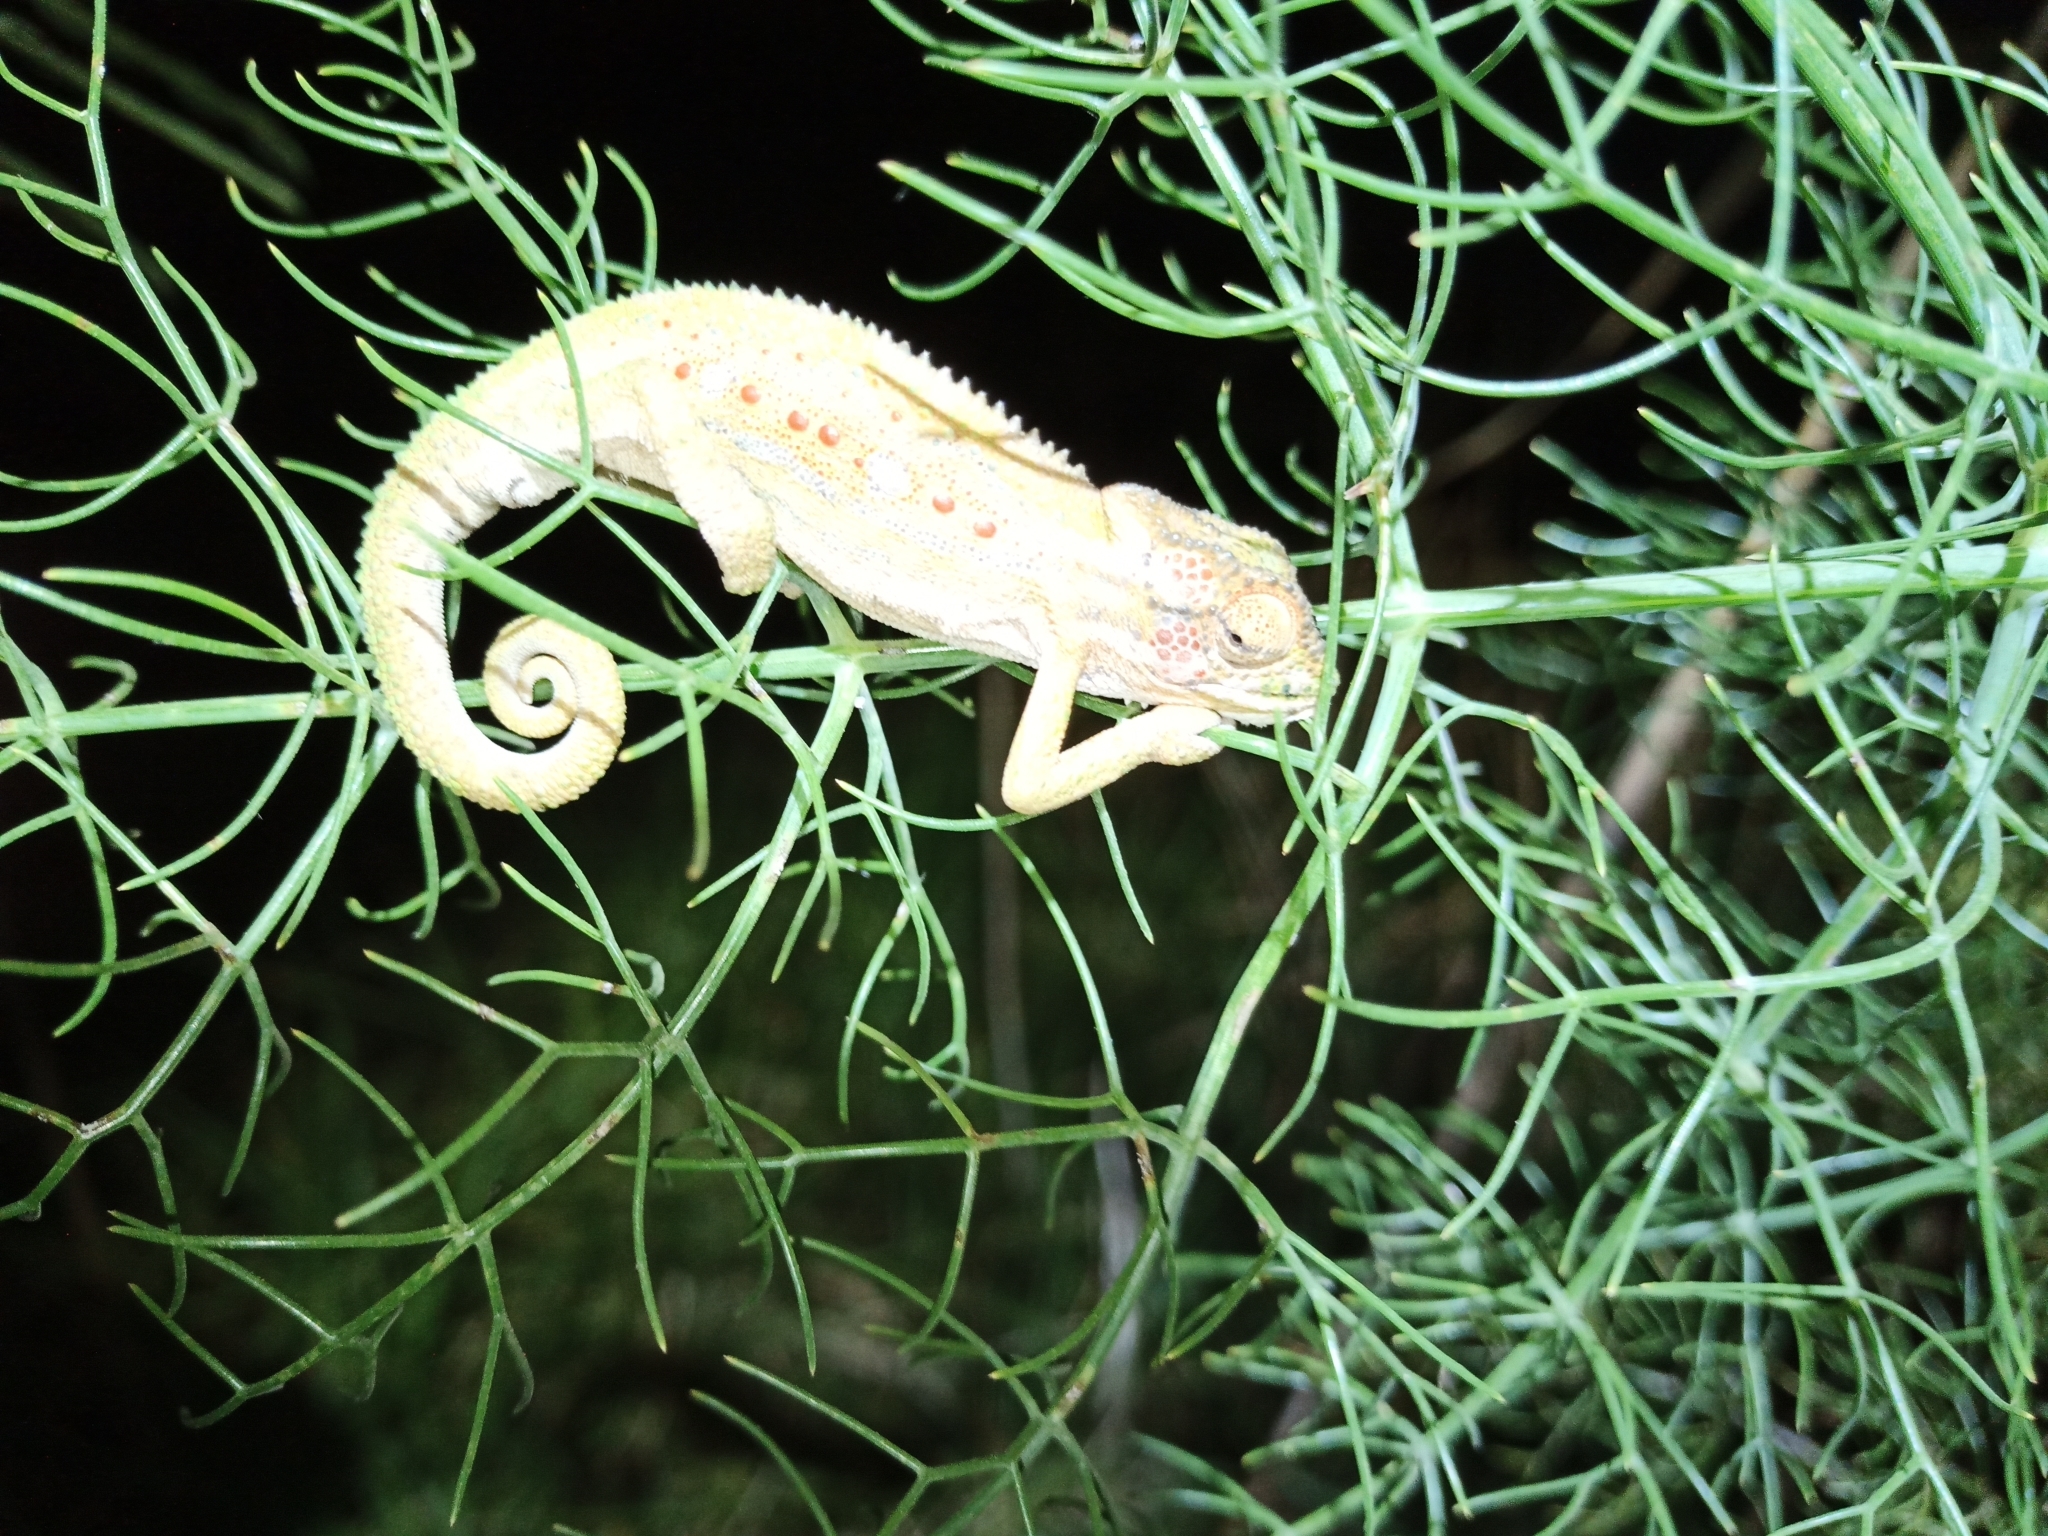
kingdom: Animalia
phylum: Chordata
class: Squamata
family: Chamaeleonidae
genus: Bradypodion
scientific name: Bradypodion pumilum
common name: Cape dwarf chameleon
